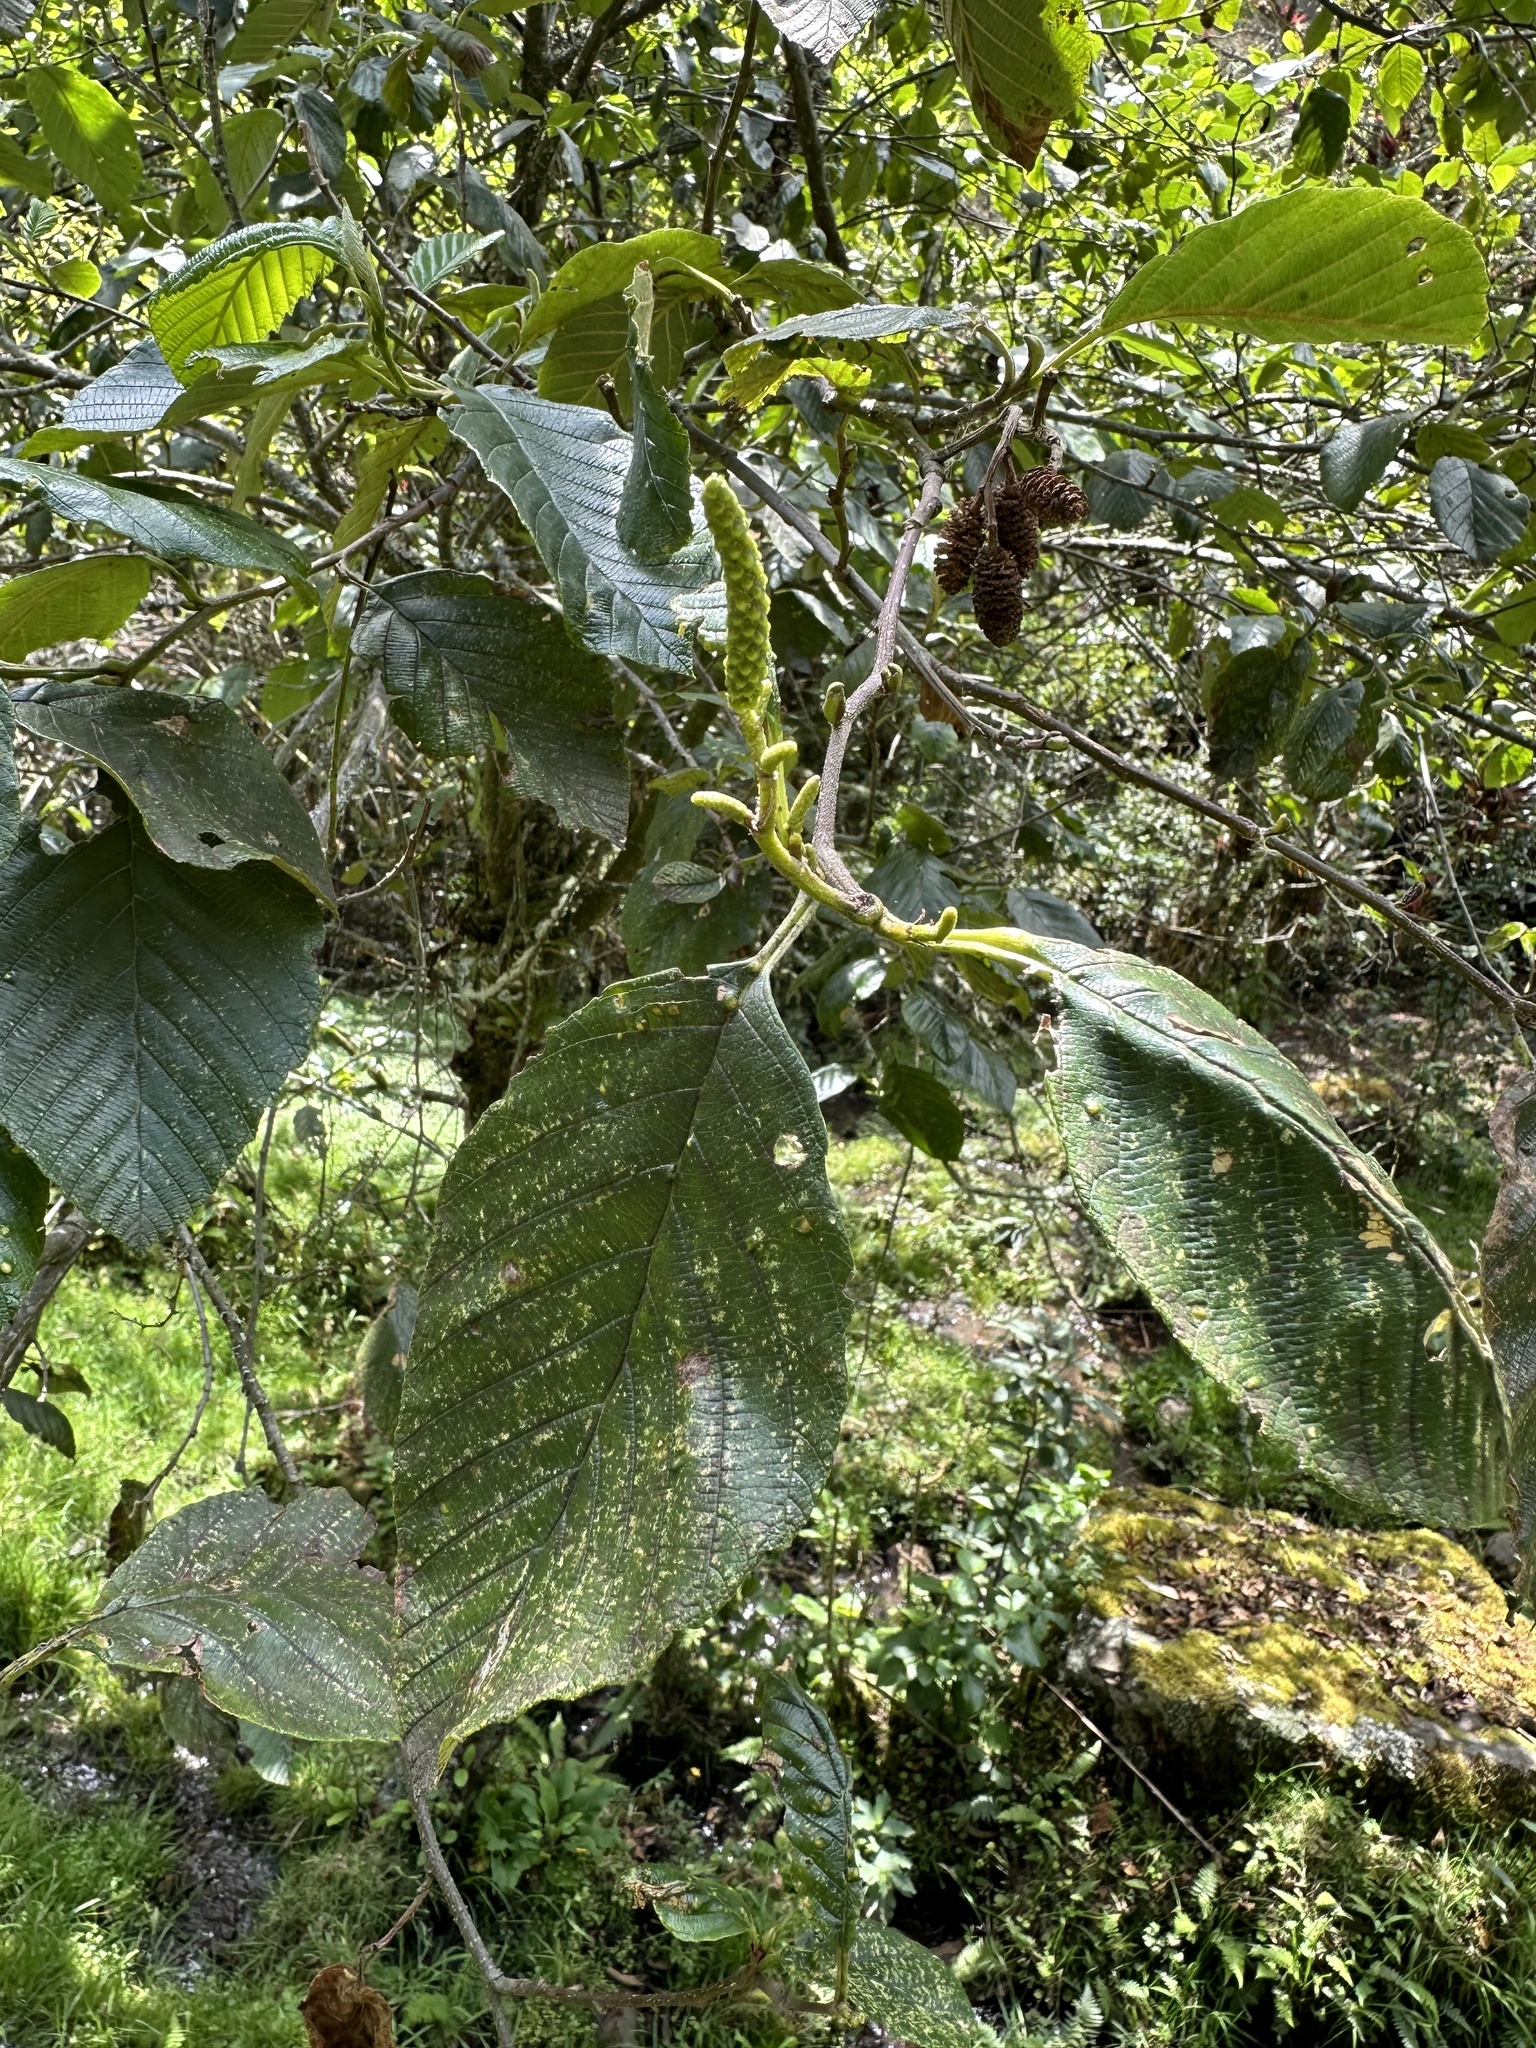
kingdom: Plantae
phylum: Tracheophyta
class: Magnoliopsida
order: Fagales
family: Betulaceae
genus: Alnus
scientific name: Alnus acuminata
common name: Alder
